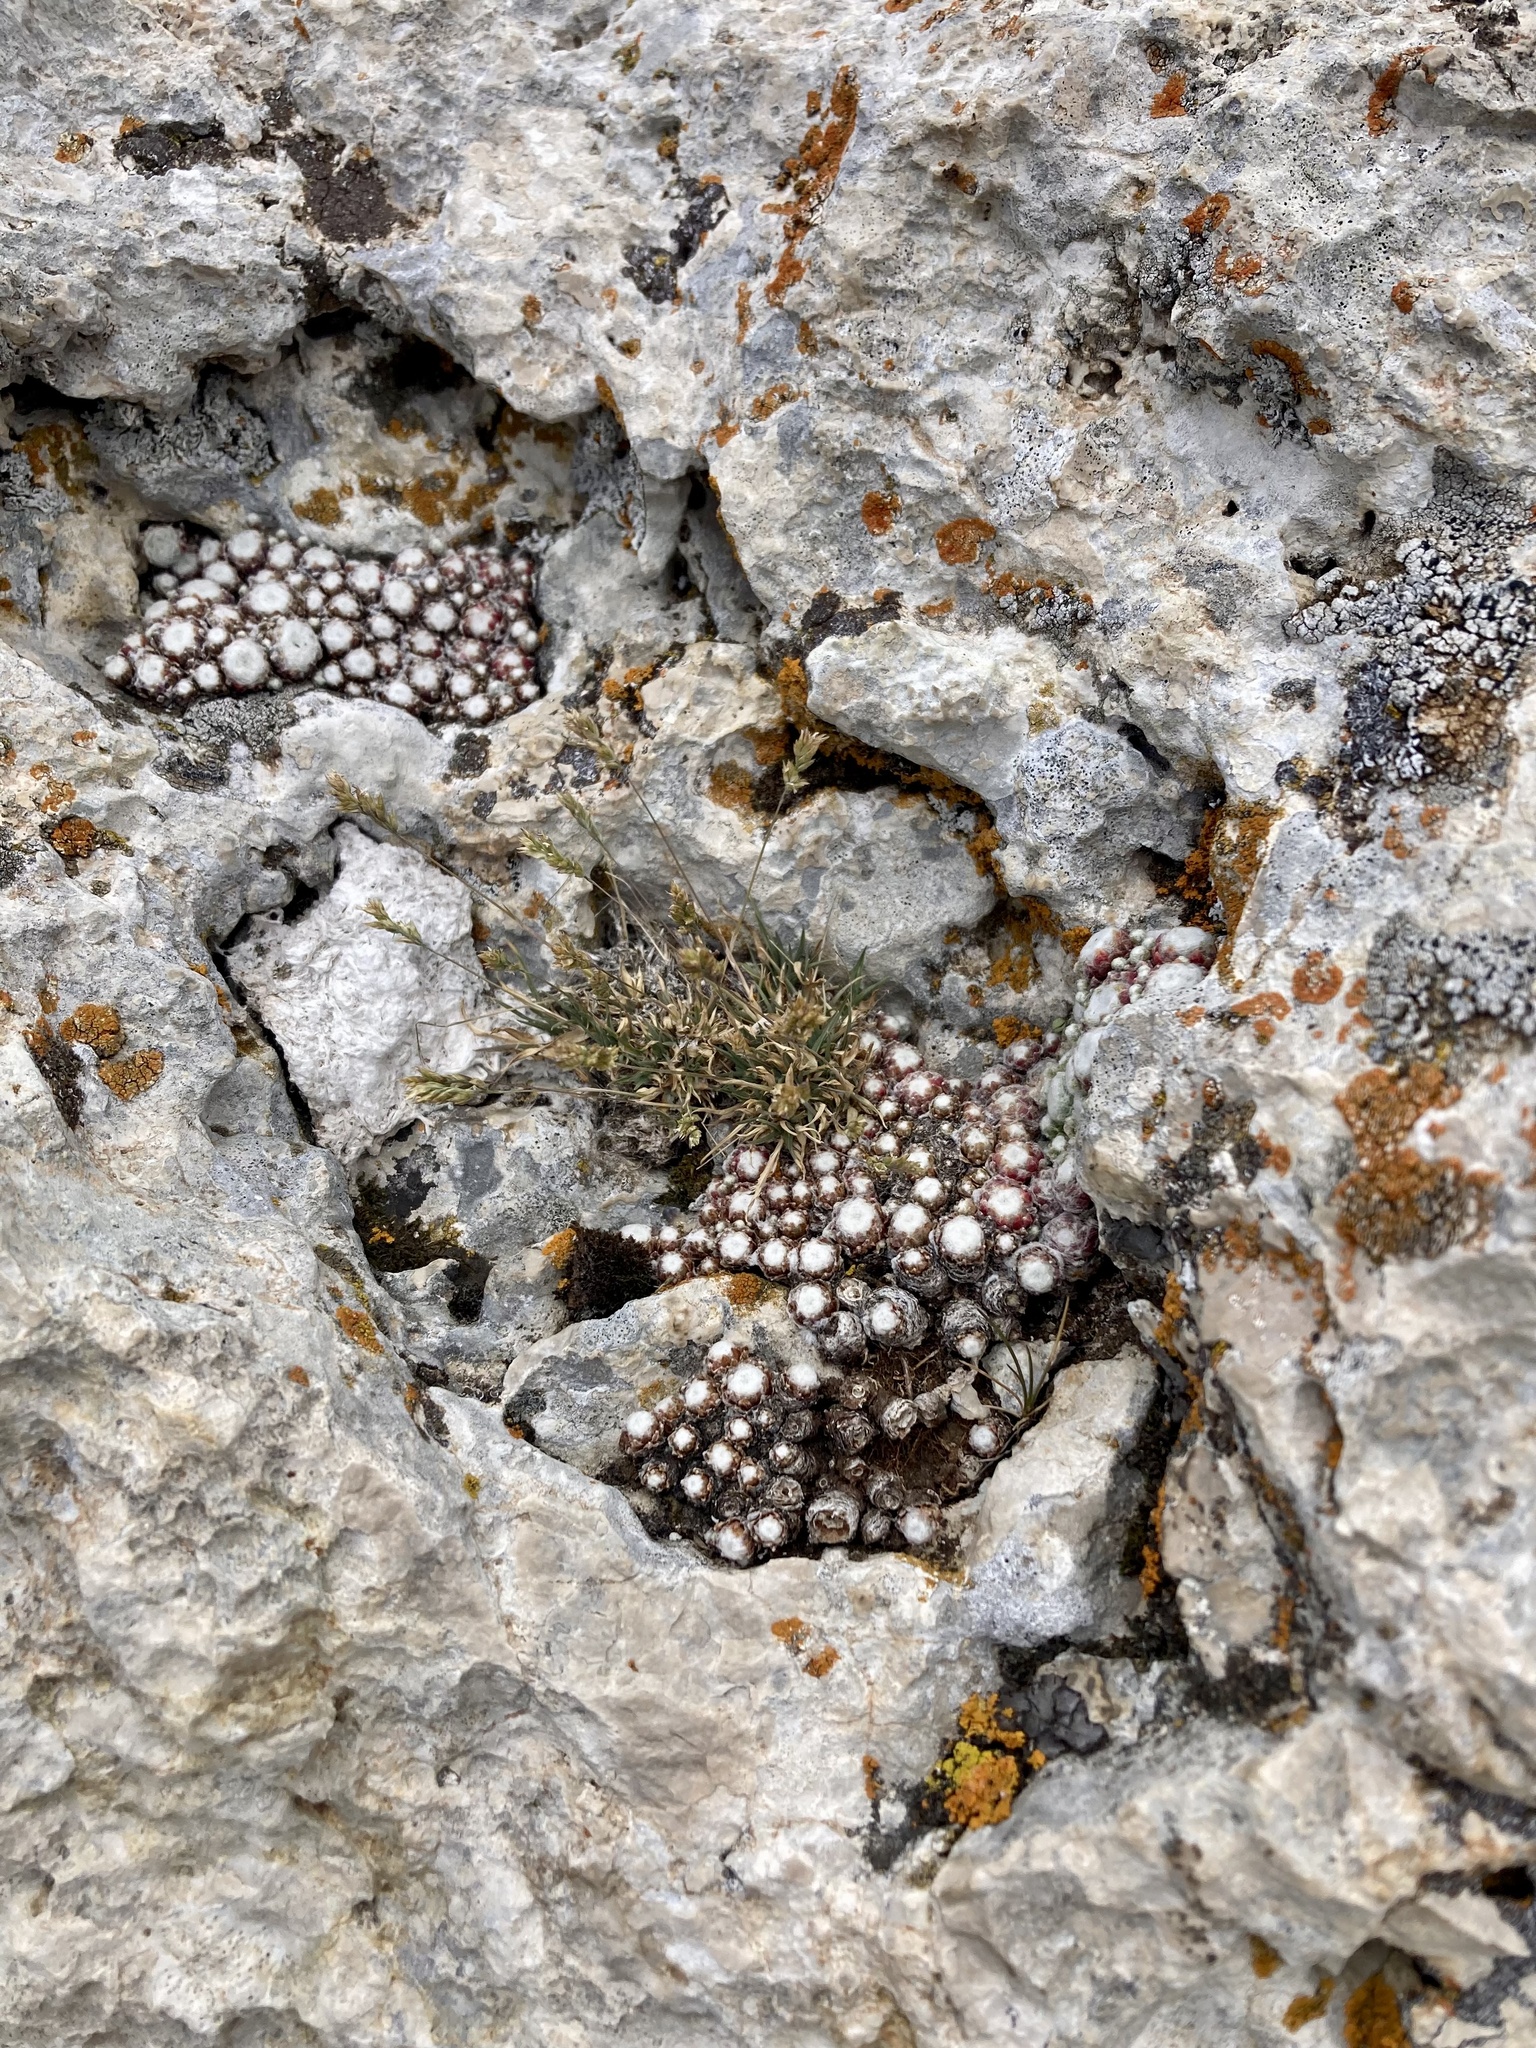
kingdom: Plantae
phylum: Tracheophyta
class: Magnoliopsida
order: Saxifragales
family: Crassulaceae
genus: Sempervivum
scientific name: Sempervivum arachnoideum
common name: Cobweb house-leek
